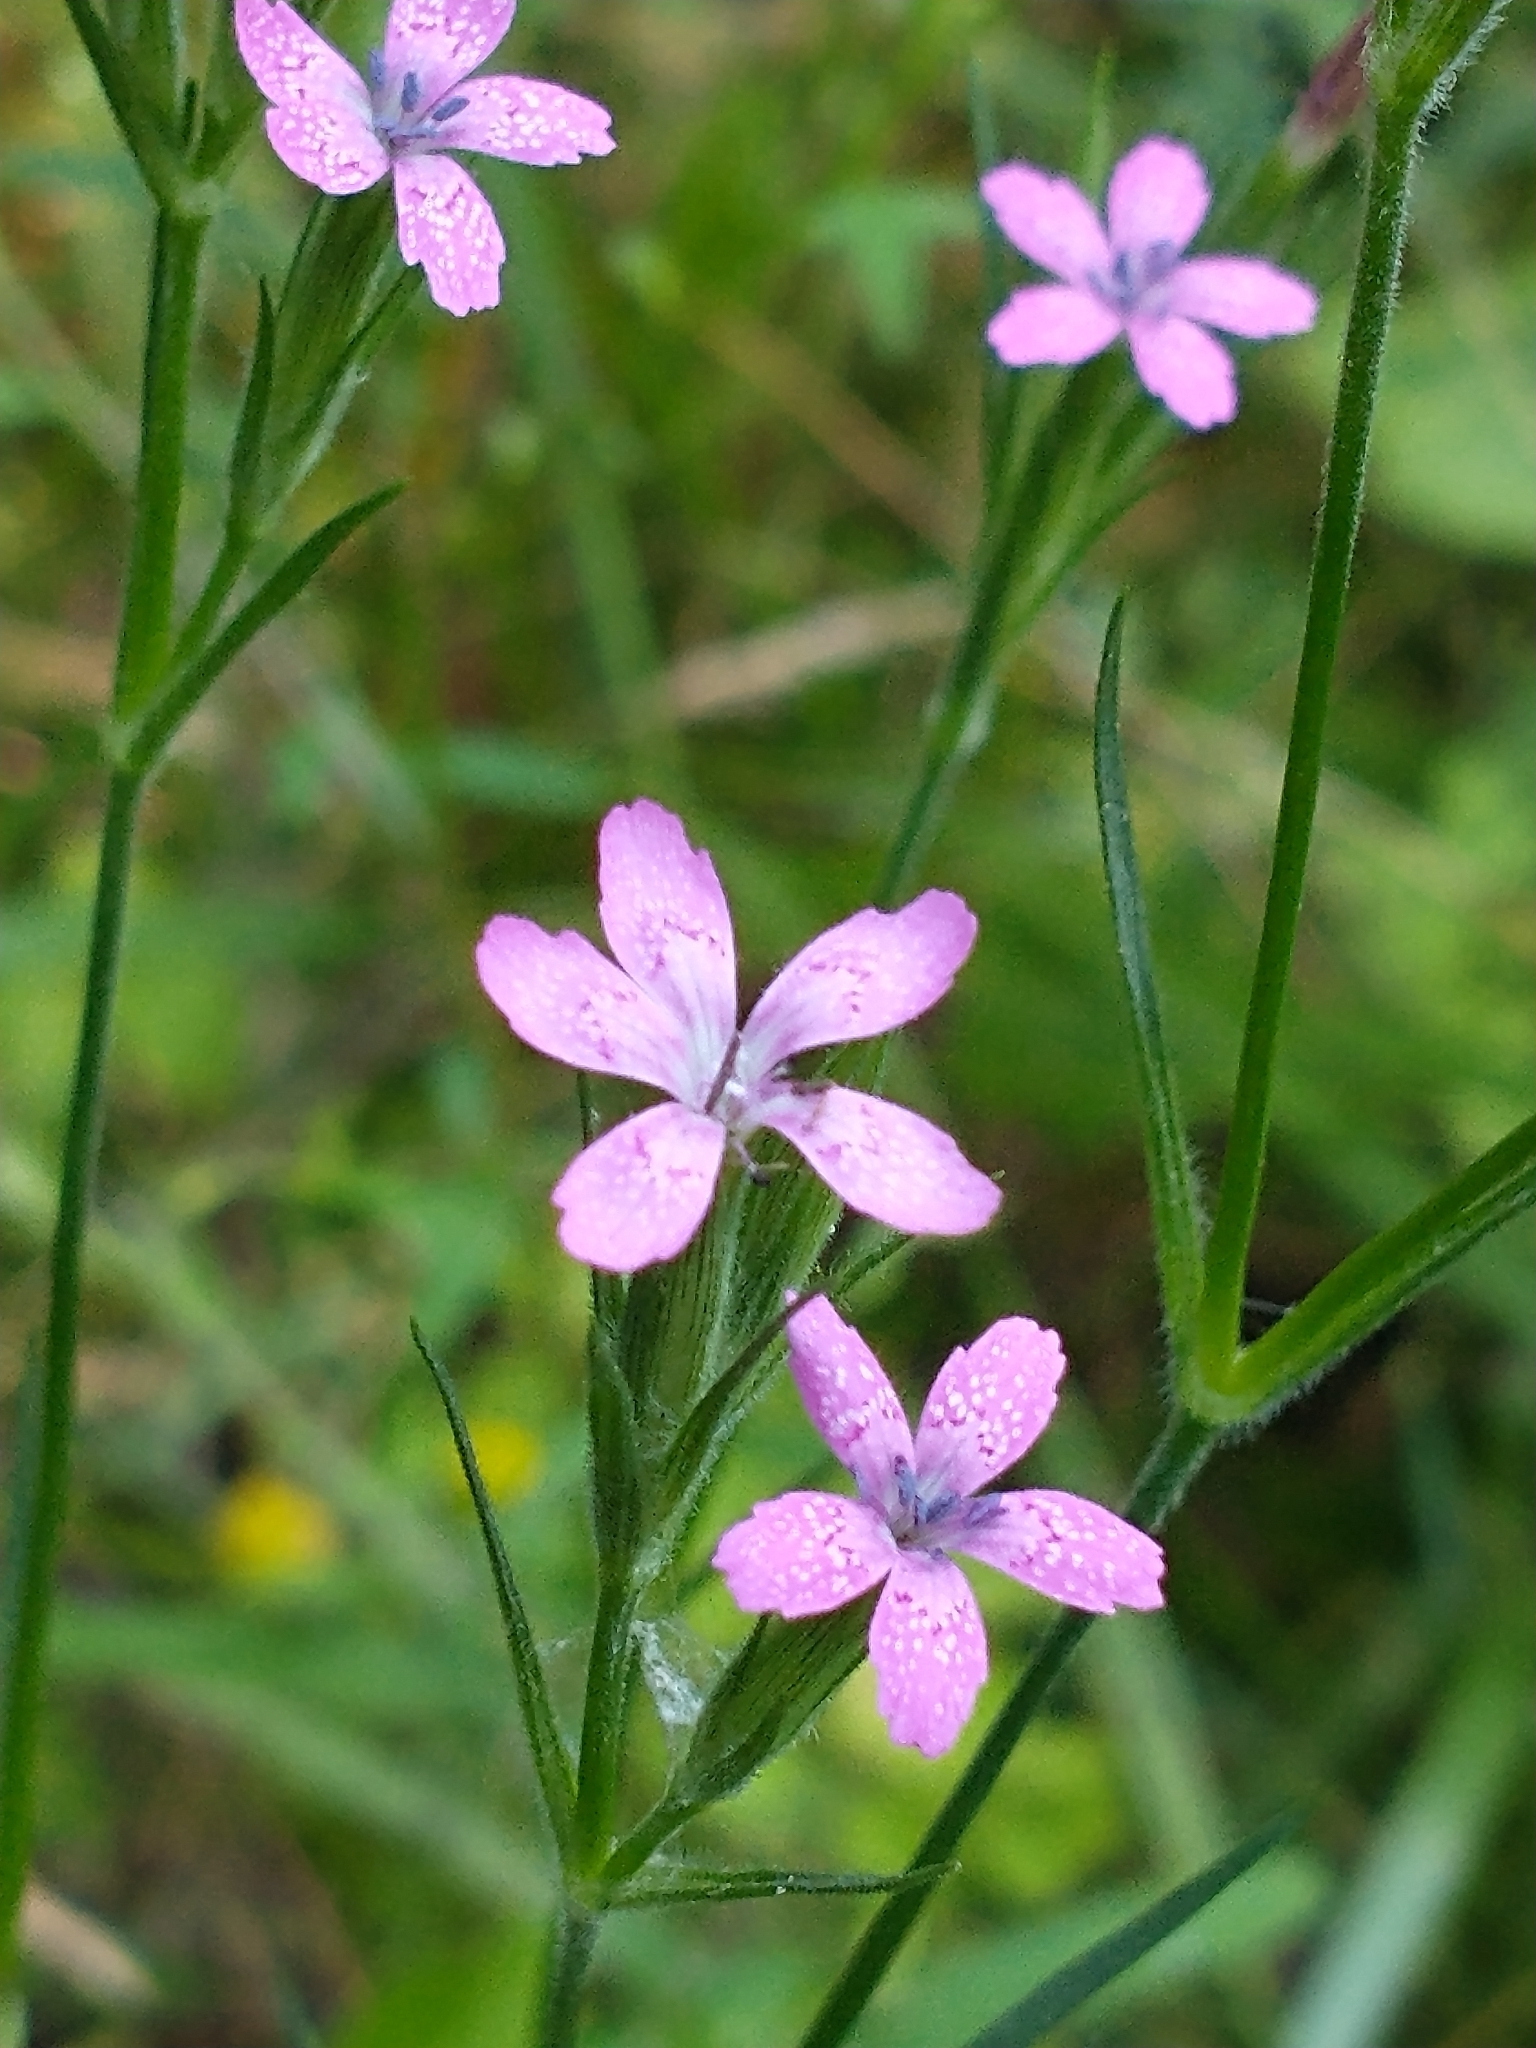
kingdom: Plantae
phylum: Tracheophyta
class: Magnoliopsida
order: Caryophyllales
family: Caryophyllaceae
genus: Dianthus
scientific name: Dianthus armeria
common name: Deptford pink
